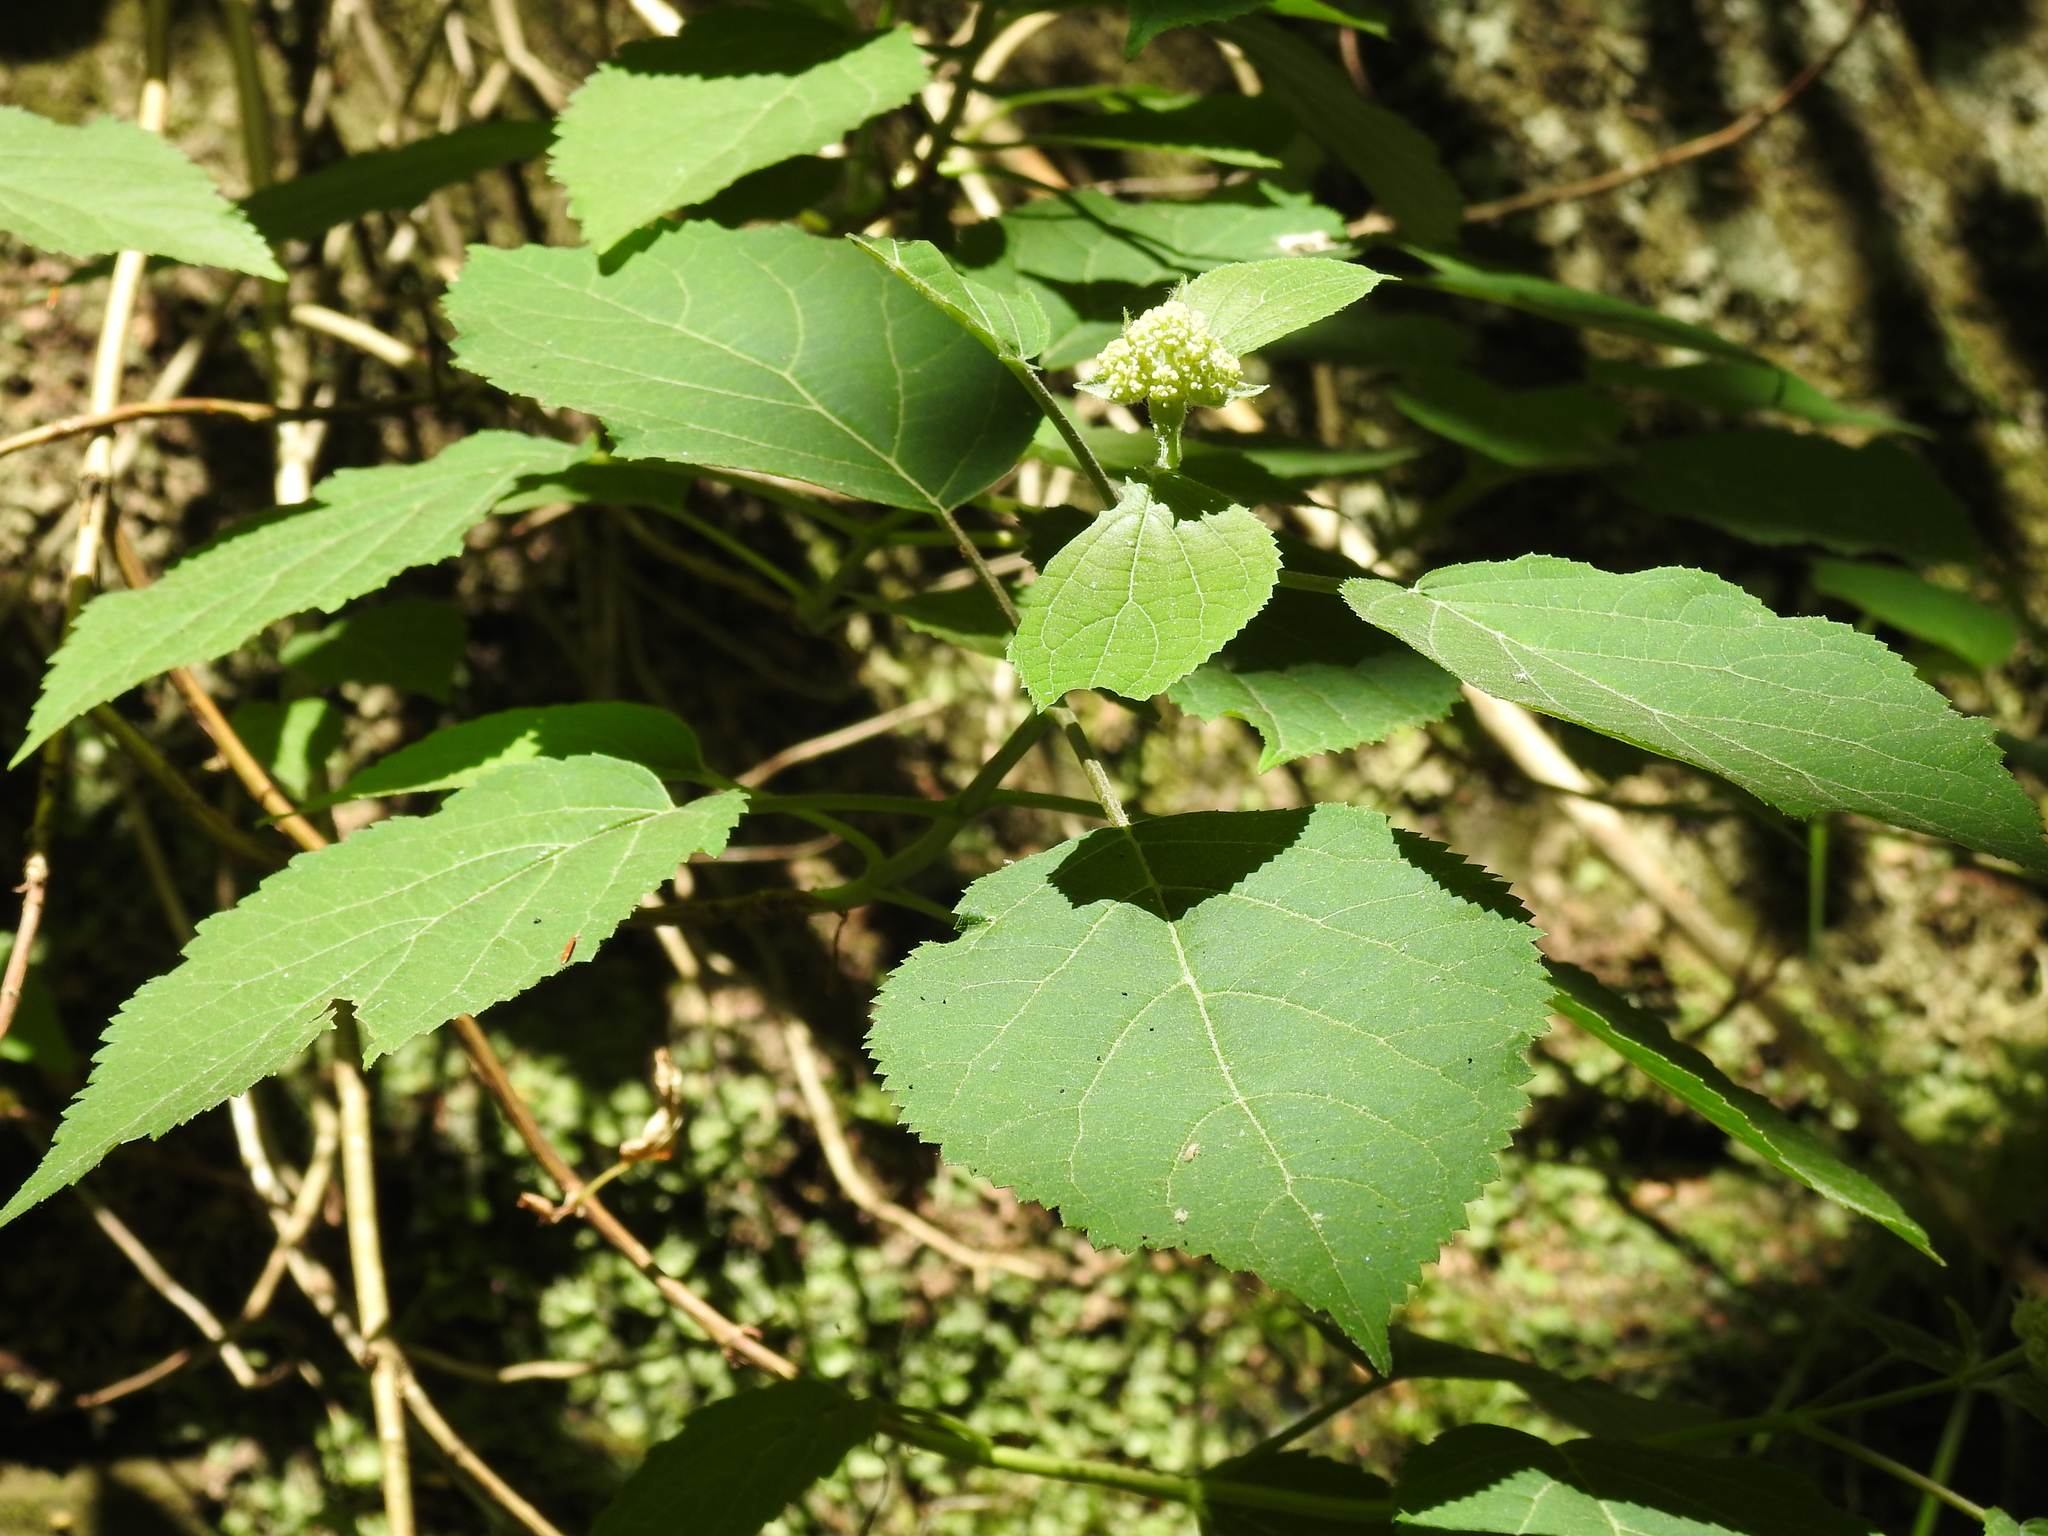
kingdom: Plantae
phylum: Tracheophyta
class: Magnoliopsida
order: Cornales
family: Hydrangeaceae
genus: Hydrangea
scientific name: Hydrangea arborescens
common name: Sevenbark
